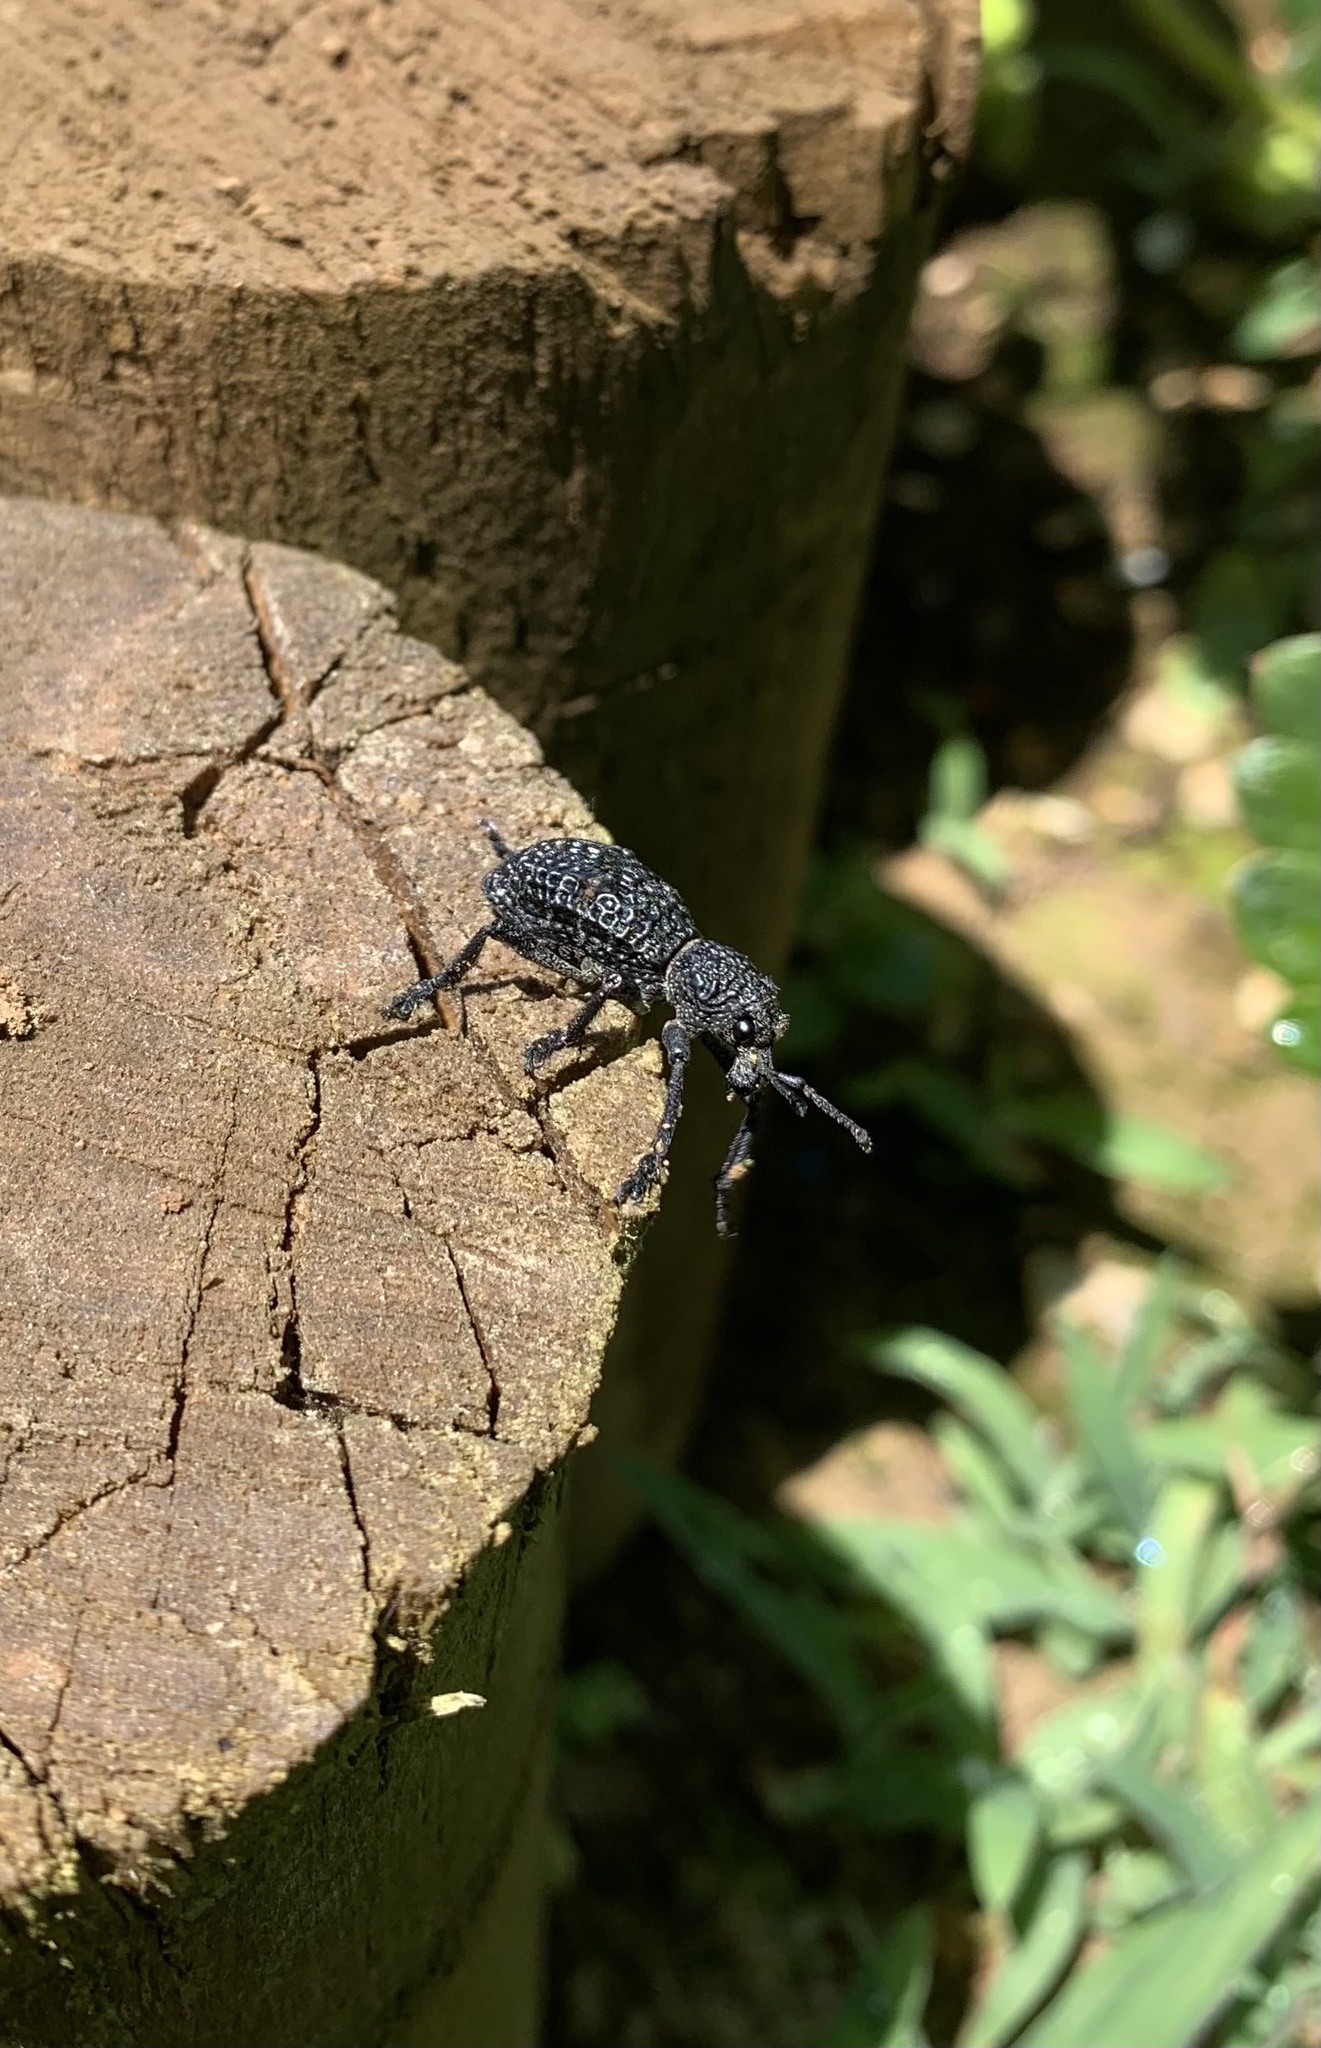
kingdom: Animalia
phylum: Arthropoda
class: Insecta
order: Coleoptera
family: Curculionidae
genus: Aegorhinus
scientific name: Aegorhinus superciliosus
